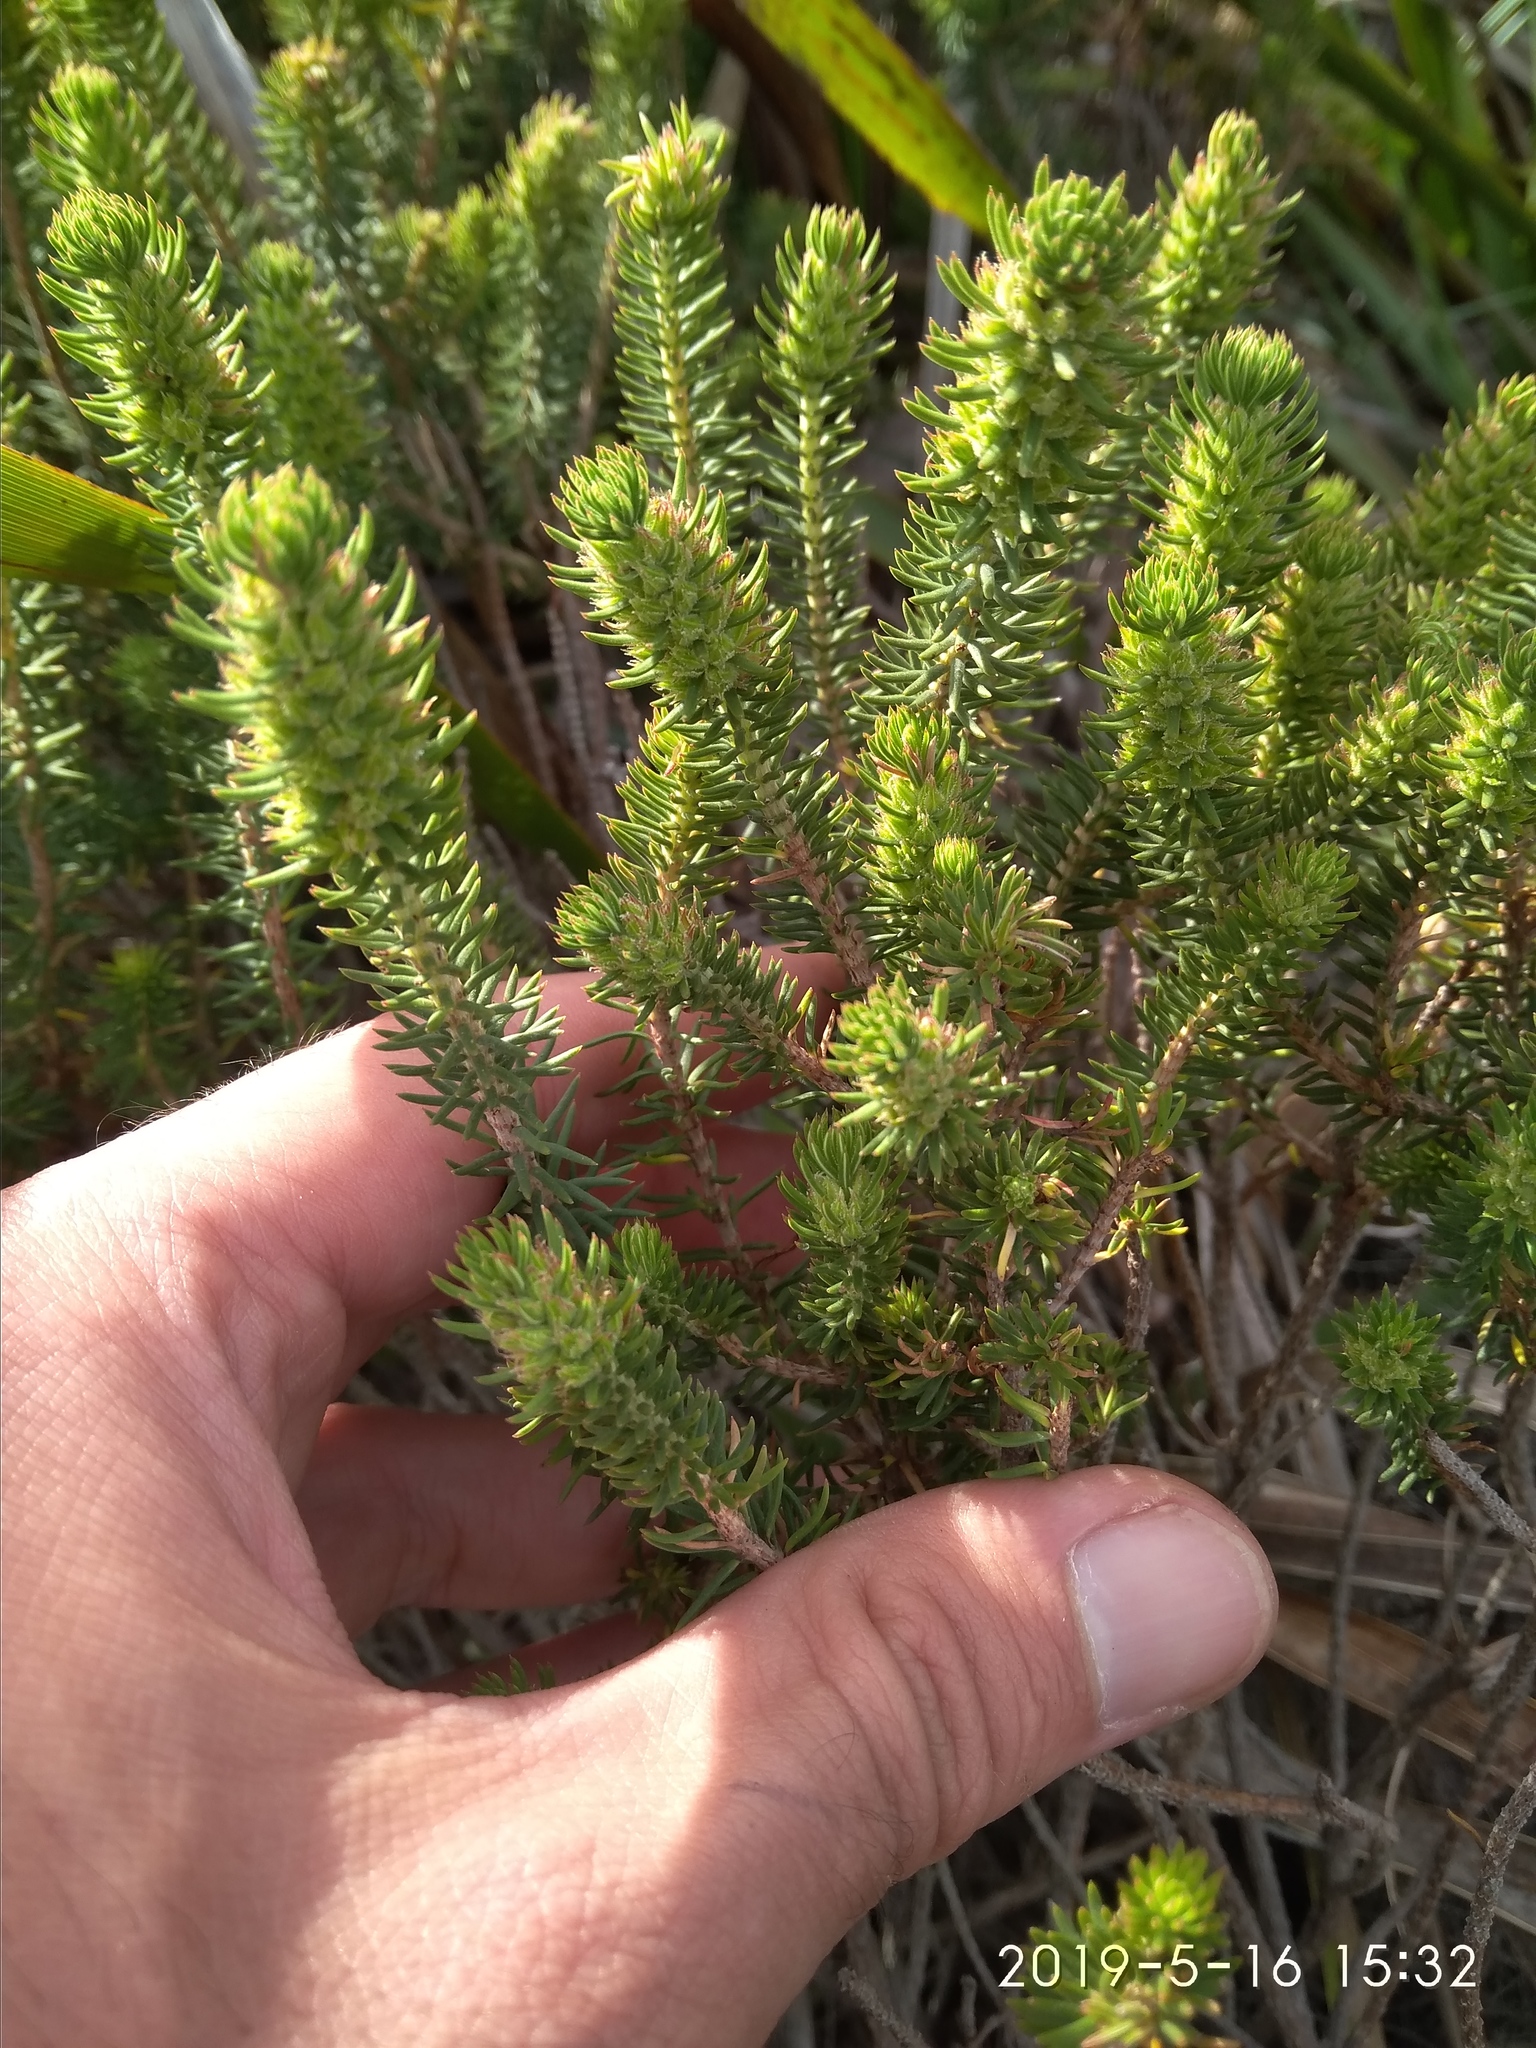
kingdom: Plantae
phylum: Tracheophyta
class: Magnoliopsida
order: Ericales
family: Ericaceae
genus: Erica
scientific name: Erica abietina
